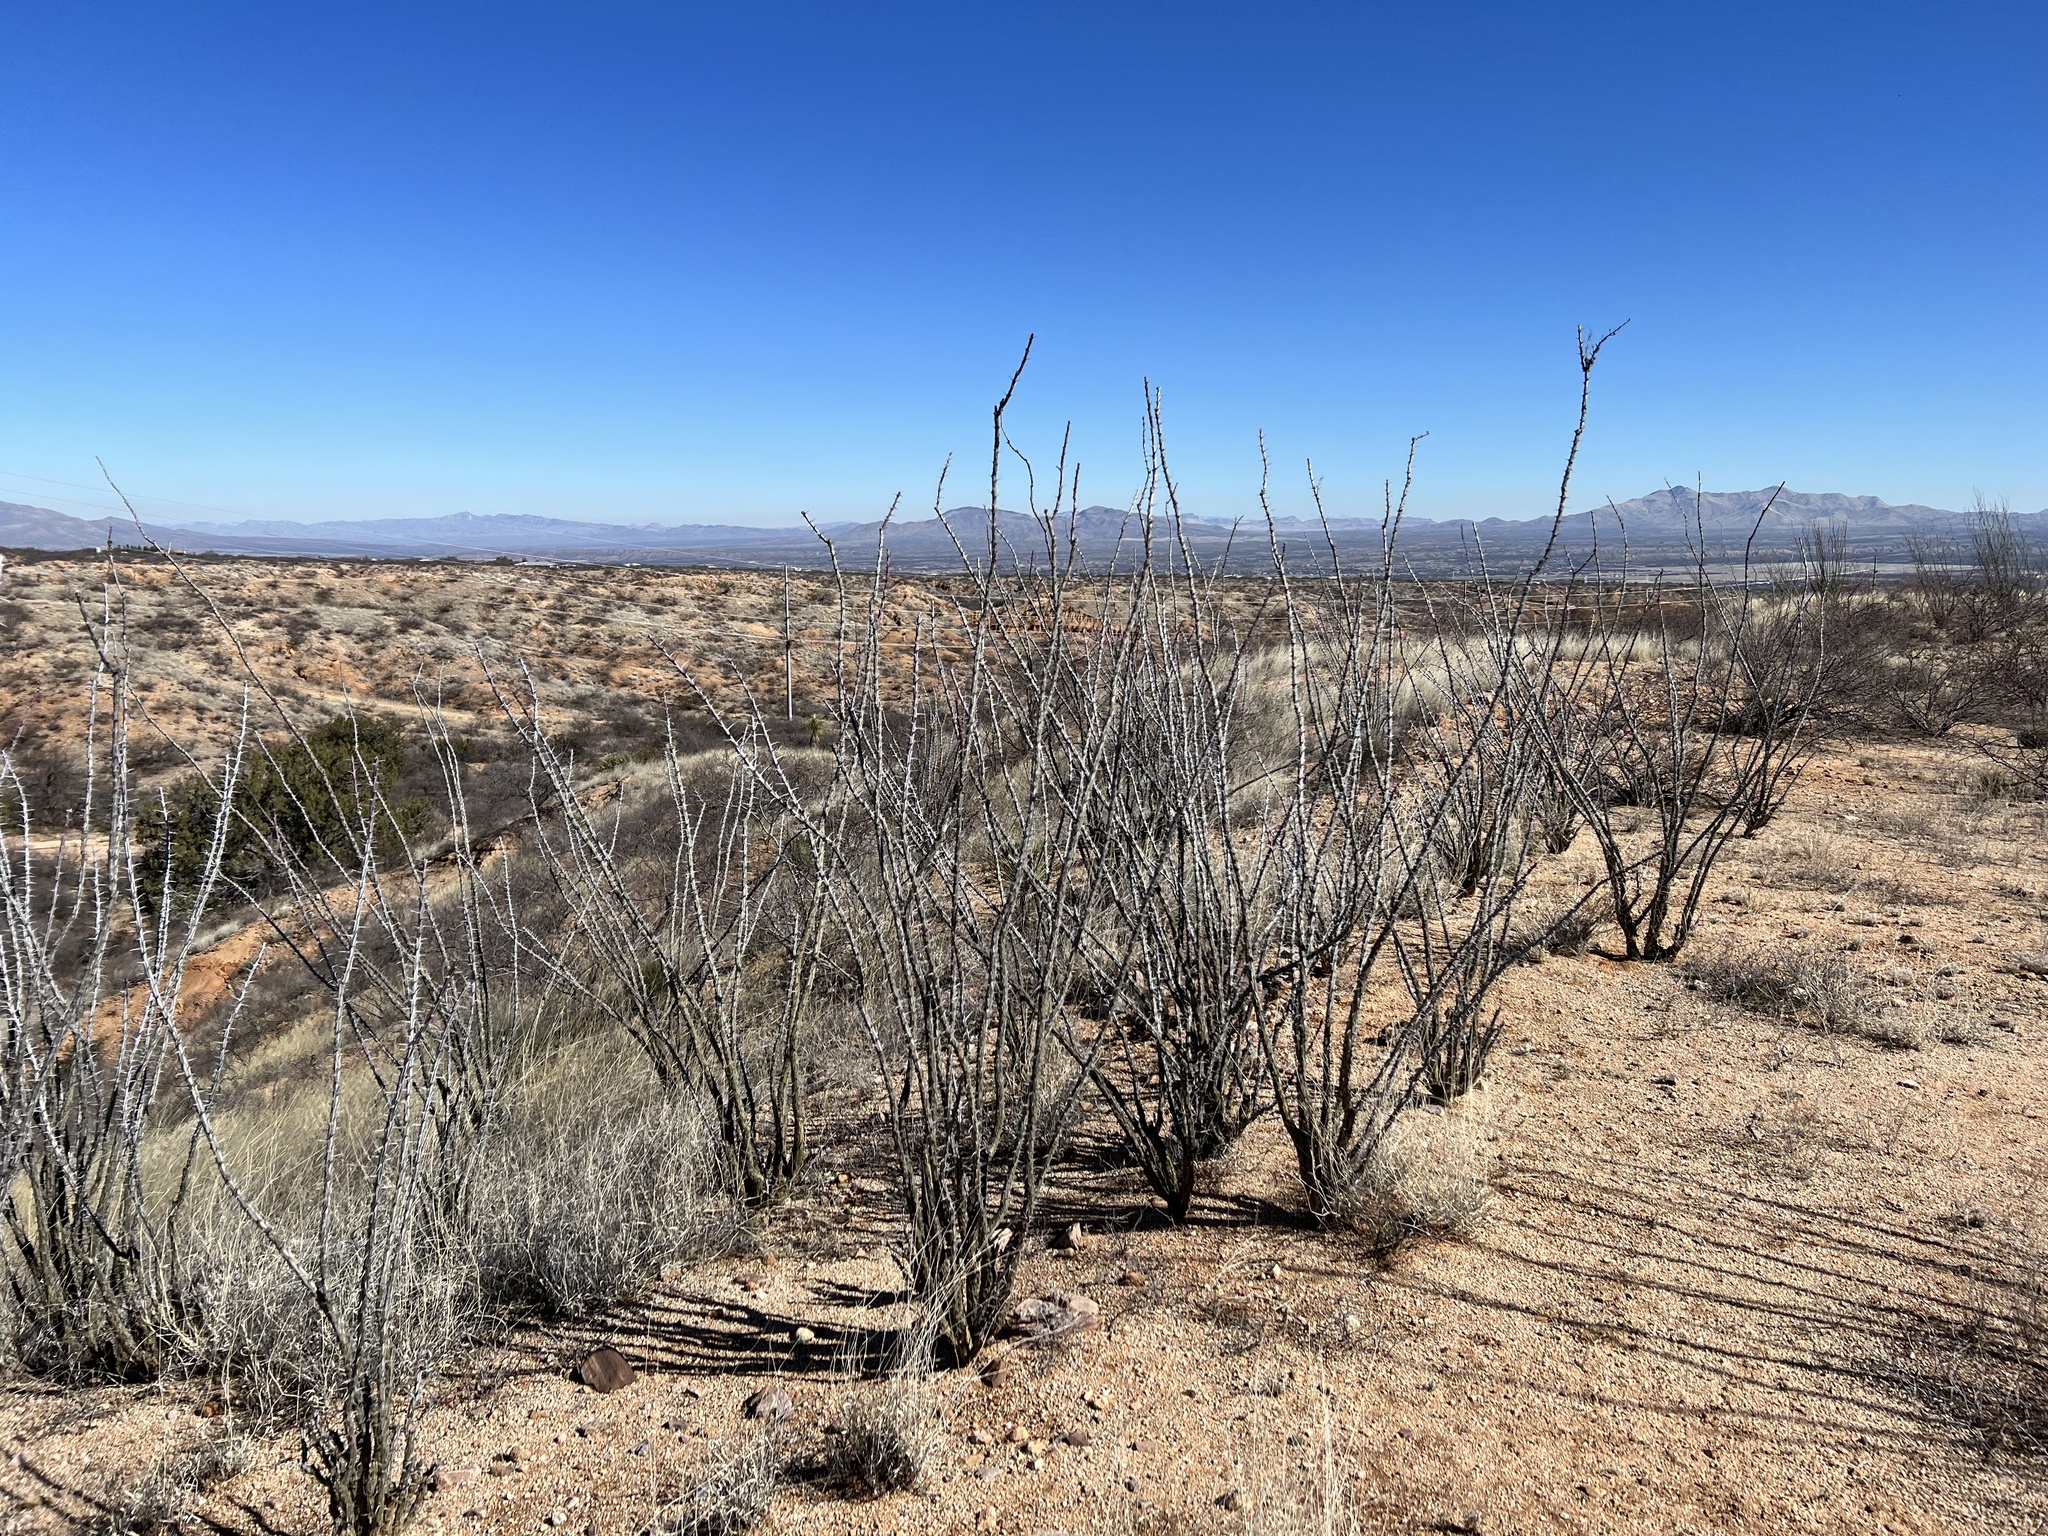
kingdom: Plantae
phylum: Tracheophyta
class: Magnoliopsida
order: Ericales
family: Fouquieriaceae
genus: Fouquieria
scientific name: Fouquieria splendens
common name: Vine-cactus
